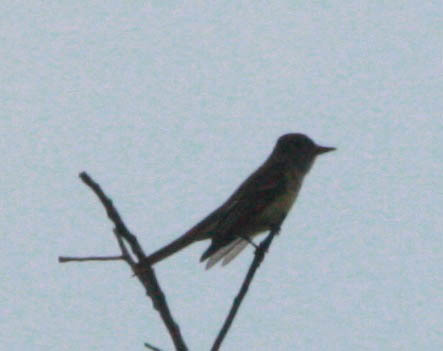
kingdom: Animalia
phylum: Chordata
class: Aves
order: Passeriformes
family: Tyrannidae
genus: Myiarchus
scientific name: Myiarchus crinitus
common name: Great crested flycatcher
